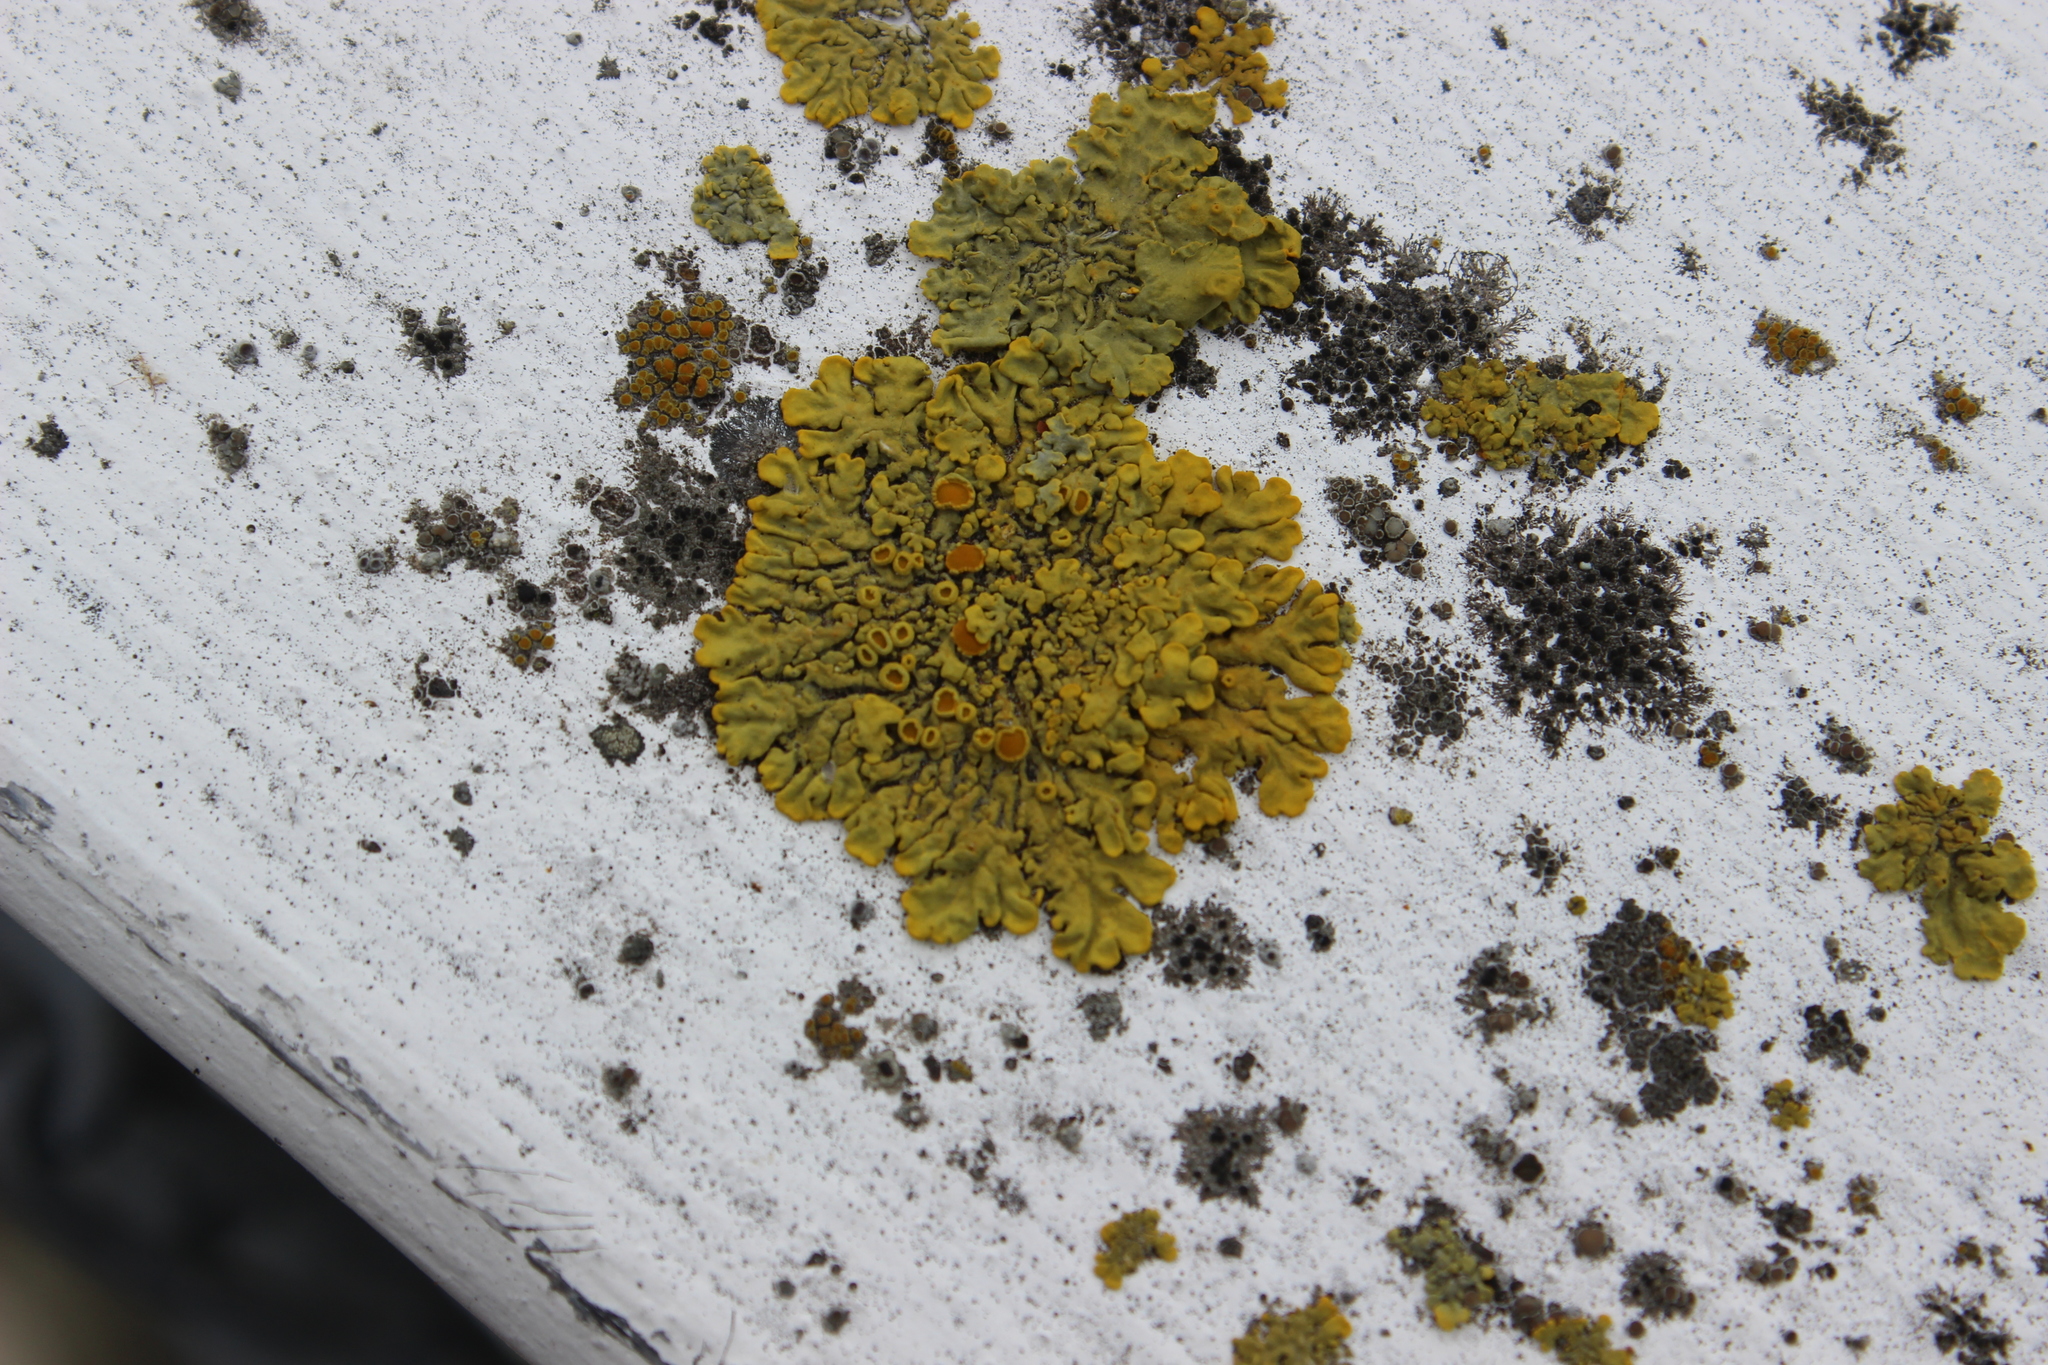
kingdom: Fungi
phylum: Ascomycota
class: Lecanoromycetes
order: Teloschistales
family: Teloschistaceae
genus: Xanthoria
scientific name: Xanthoria parietina
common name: Common orange lichen
